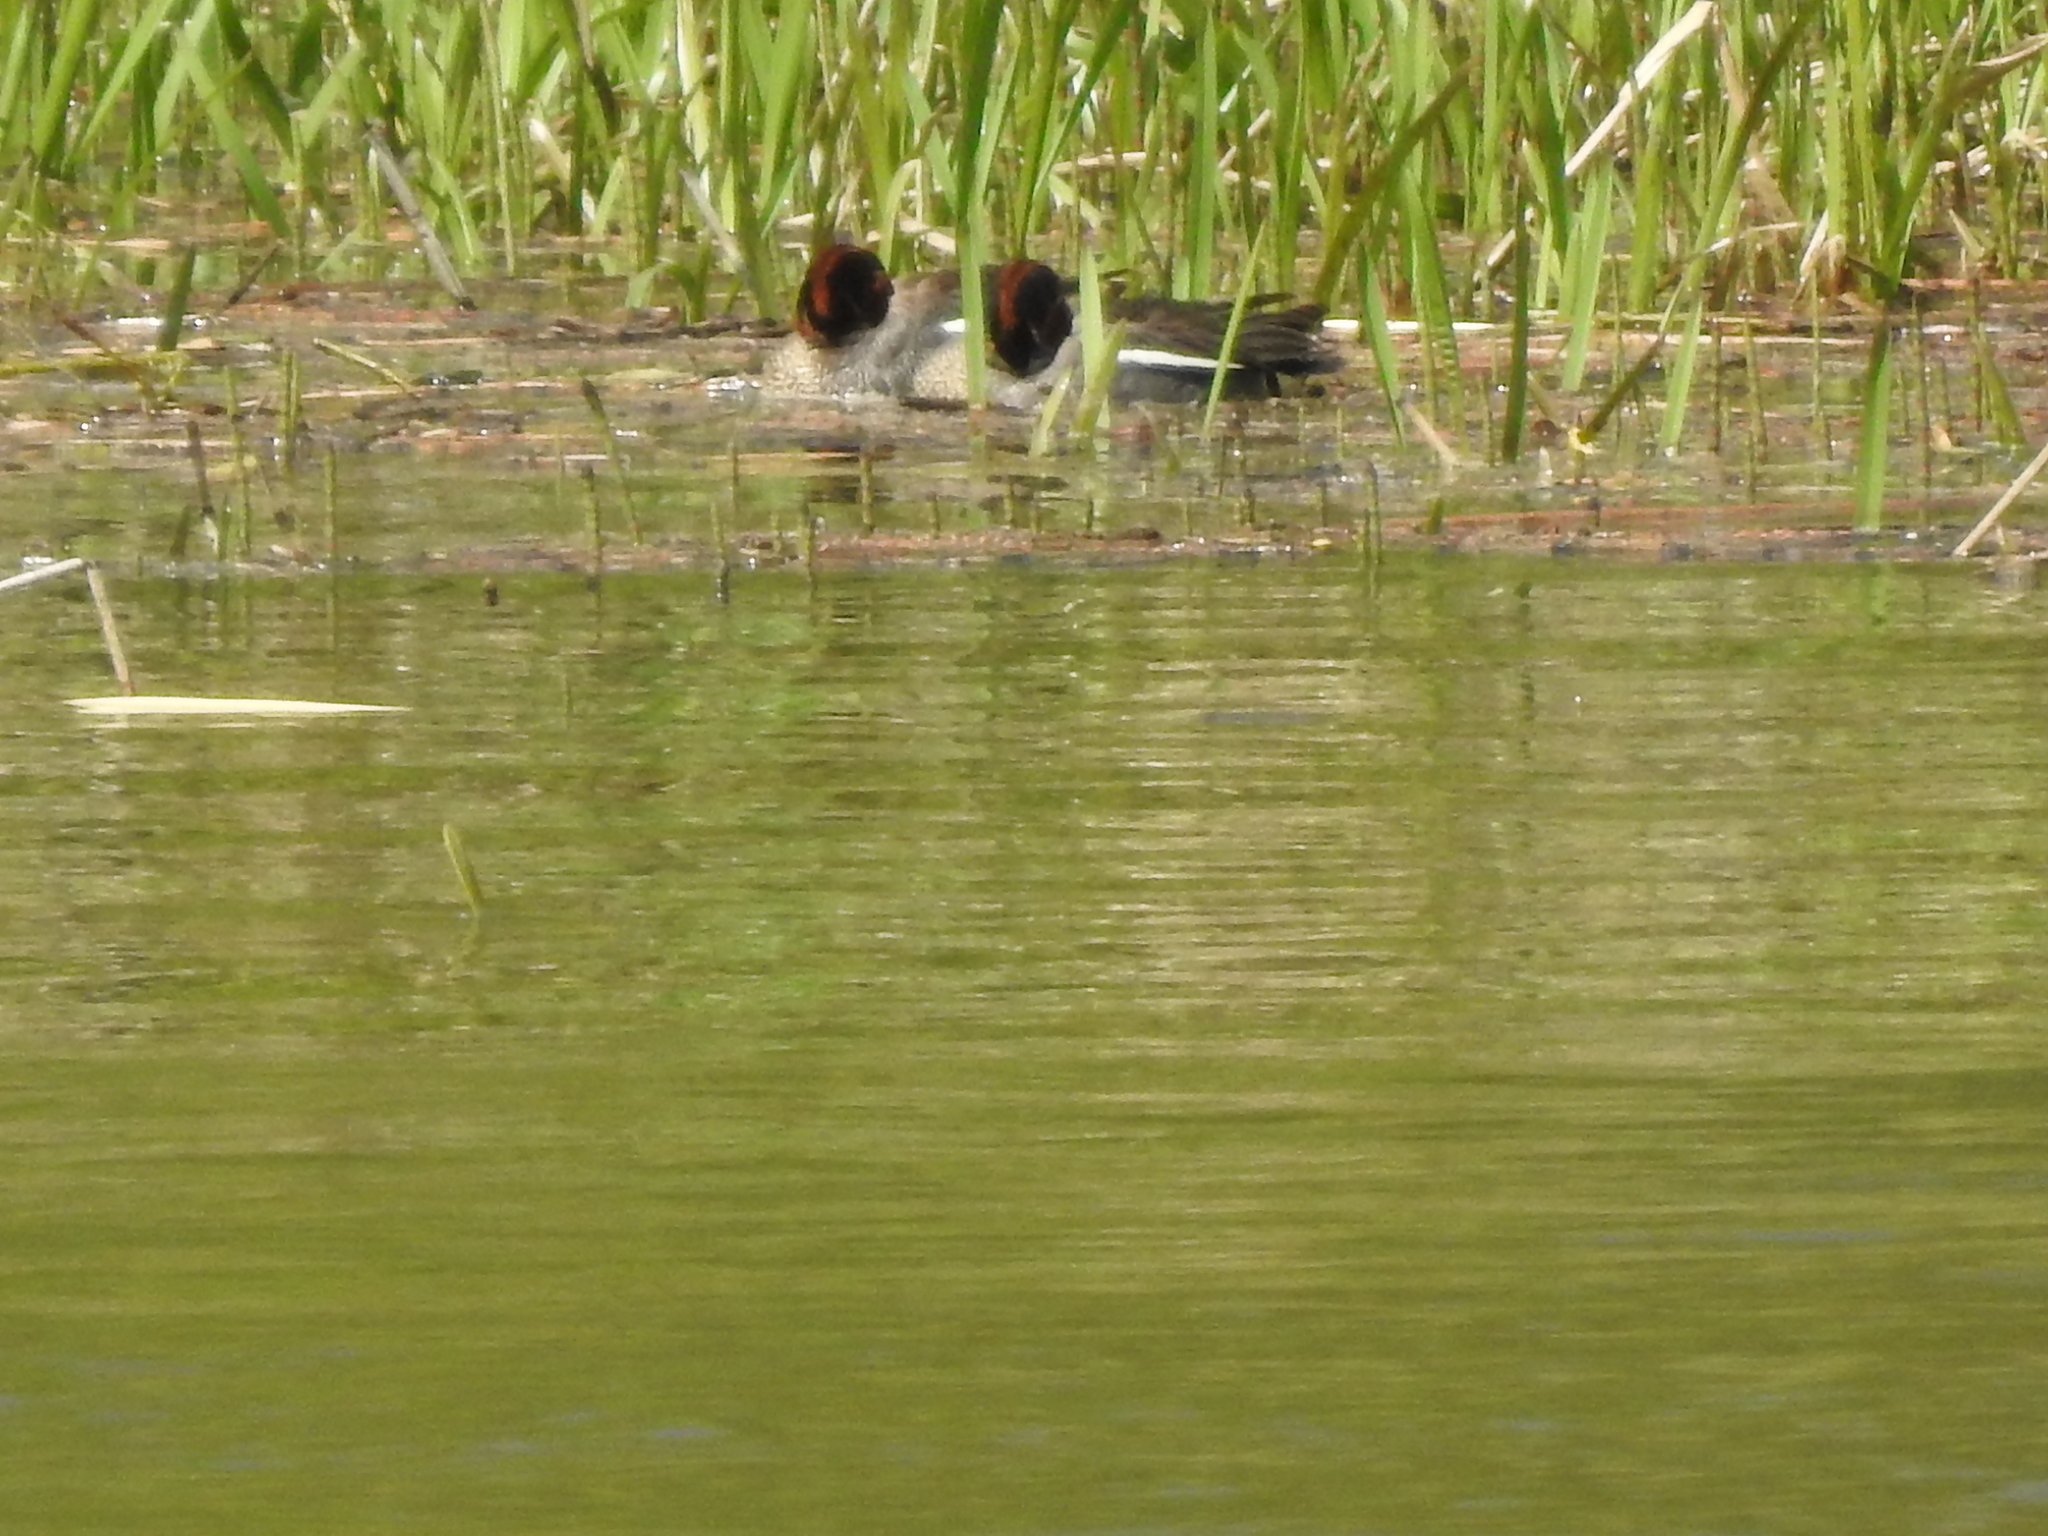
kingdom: Animalia
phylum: Chordata
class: Aves
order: Anseriformes
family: Anatidae
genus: Bucephala
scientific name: Bucephala clangula
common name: Common goldeneye
